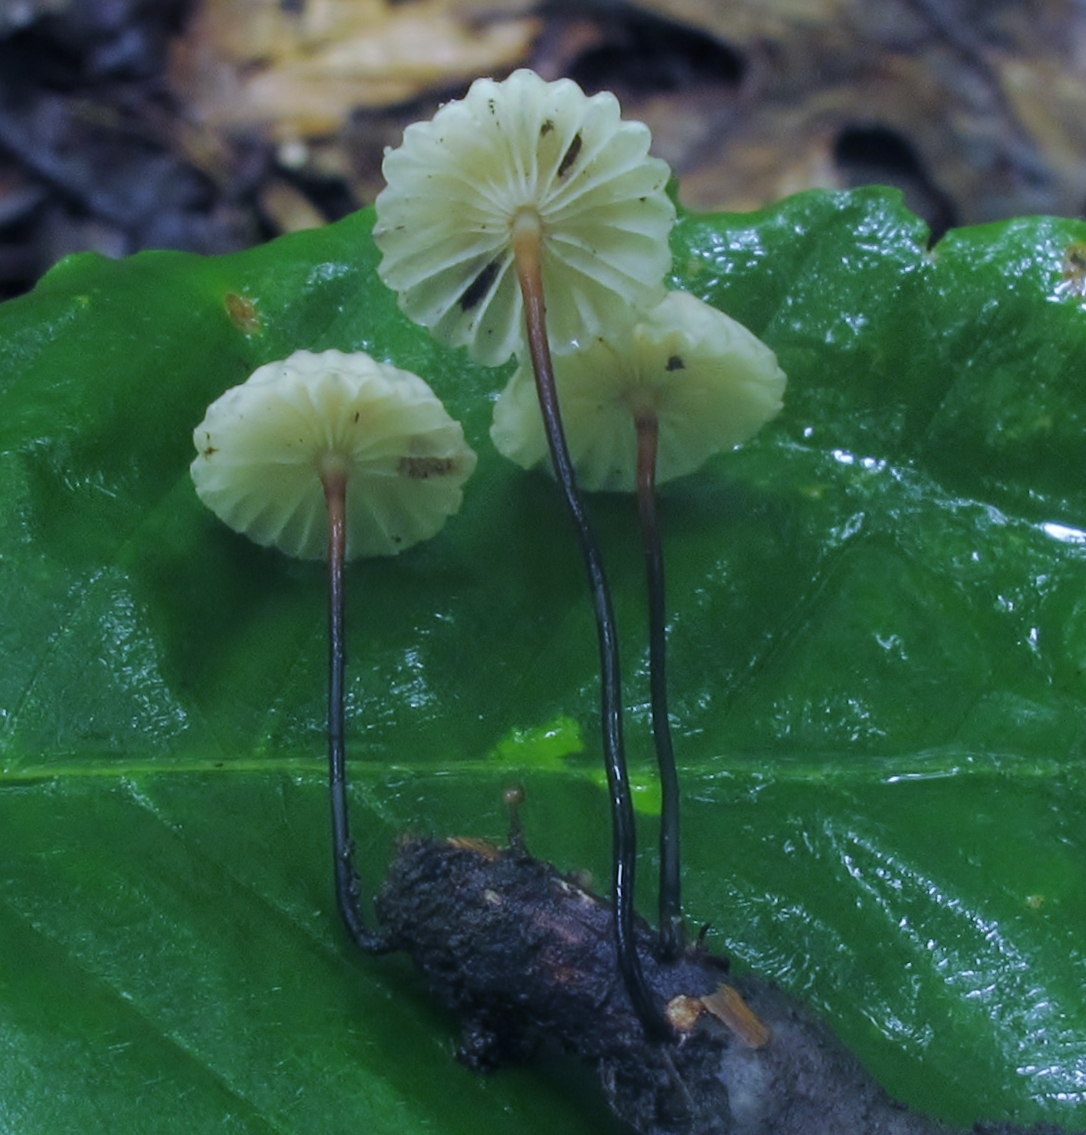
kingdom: Fungi
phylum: Basidiomycota
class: Agaricomycetes
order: Agaricales
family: Marasmiaceae
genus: Marasmius
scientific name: Marasmius rotula
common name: Collared parachute
